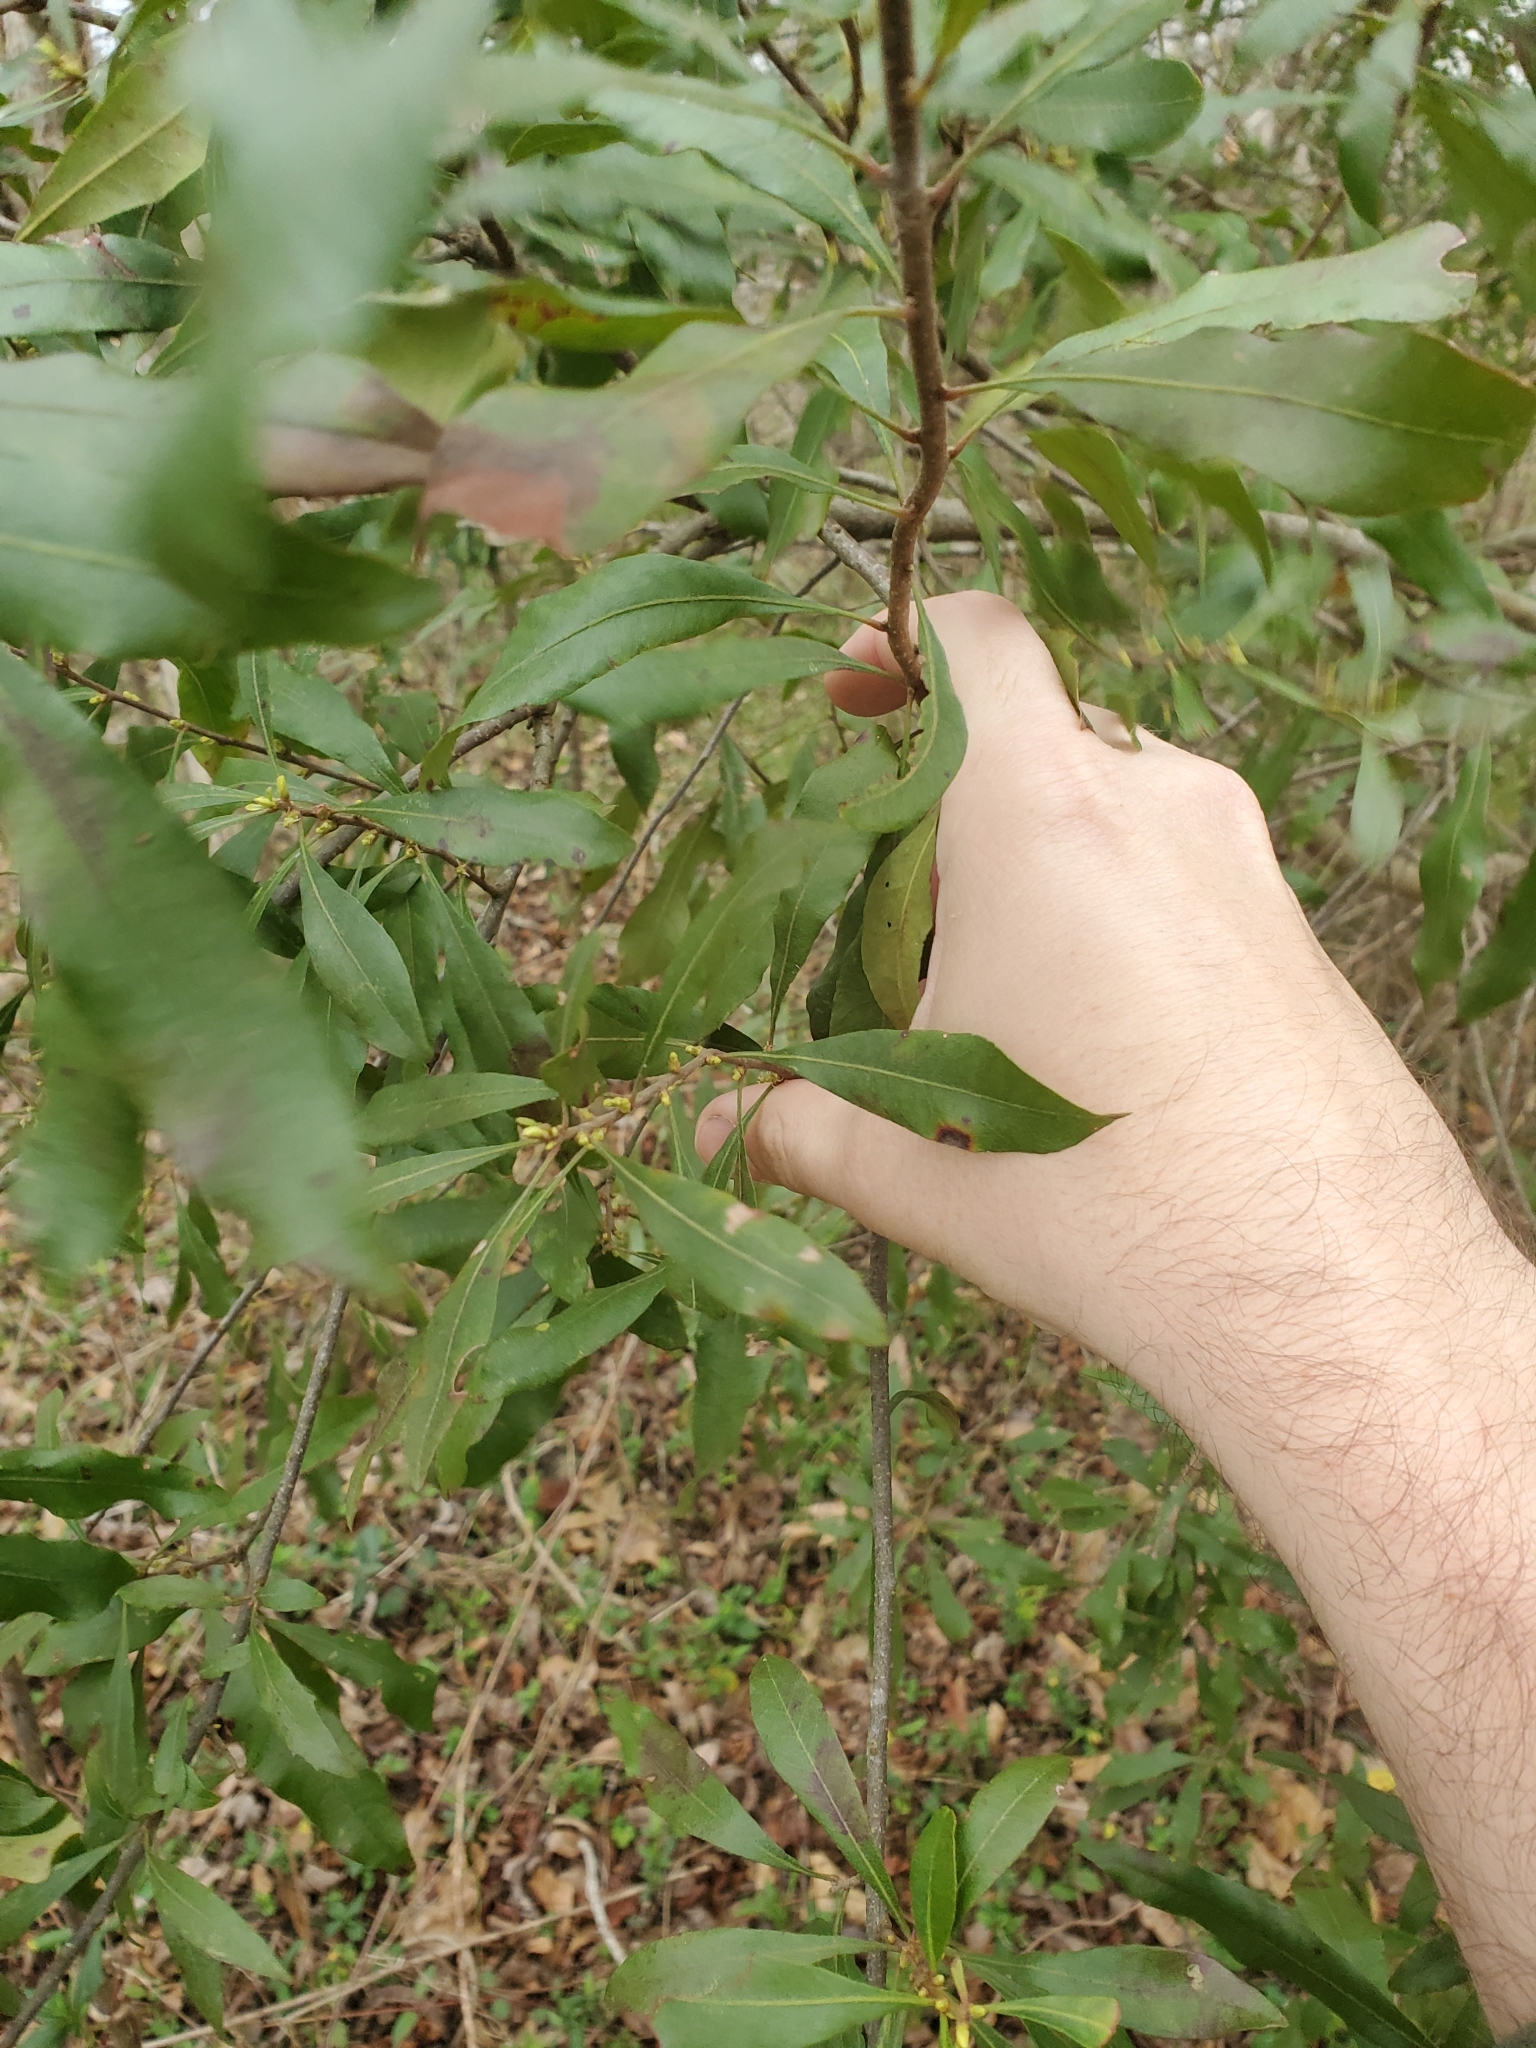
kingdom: Plantae
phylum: Tracheophyta
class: Magnoliopsida
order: Fagales
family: Myricaceae
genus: Morella
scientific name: Morella cerifera
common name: Wax myrtle
